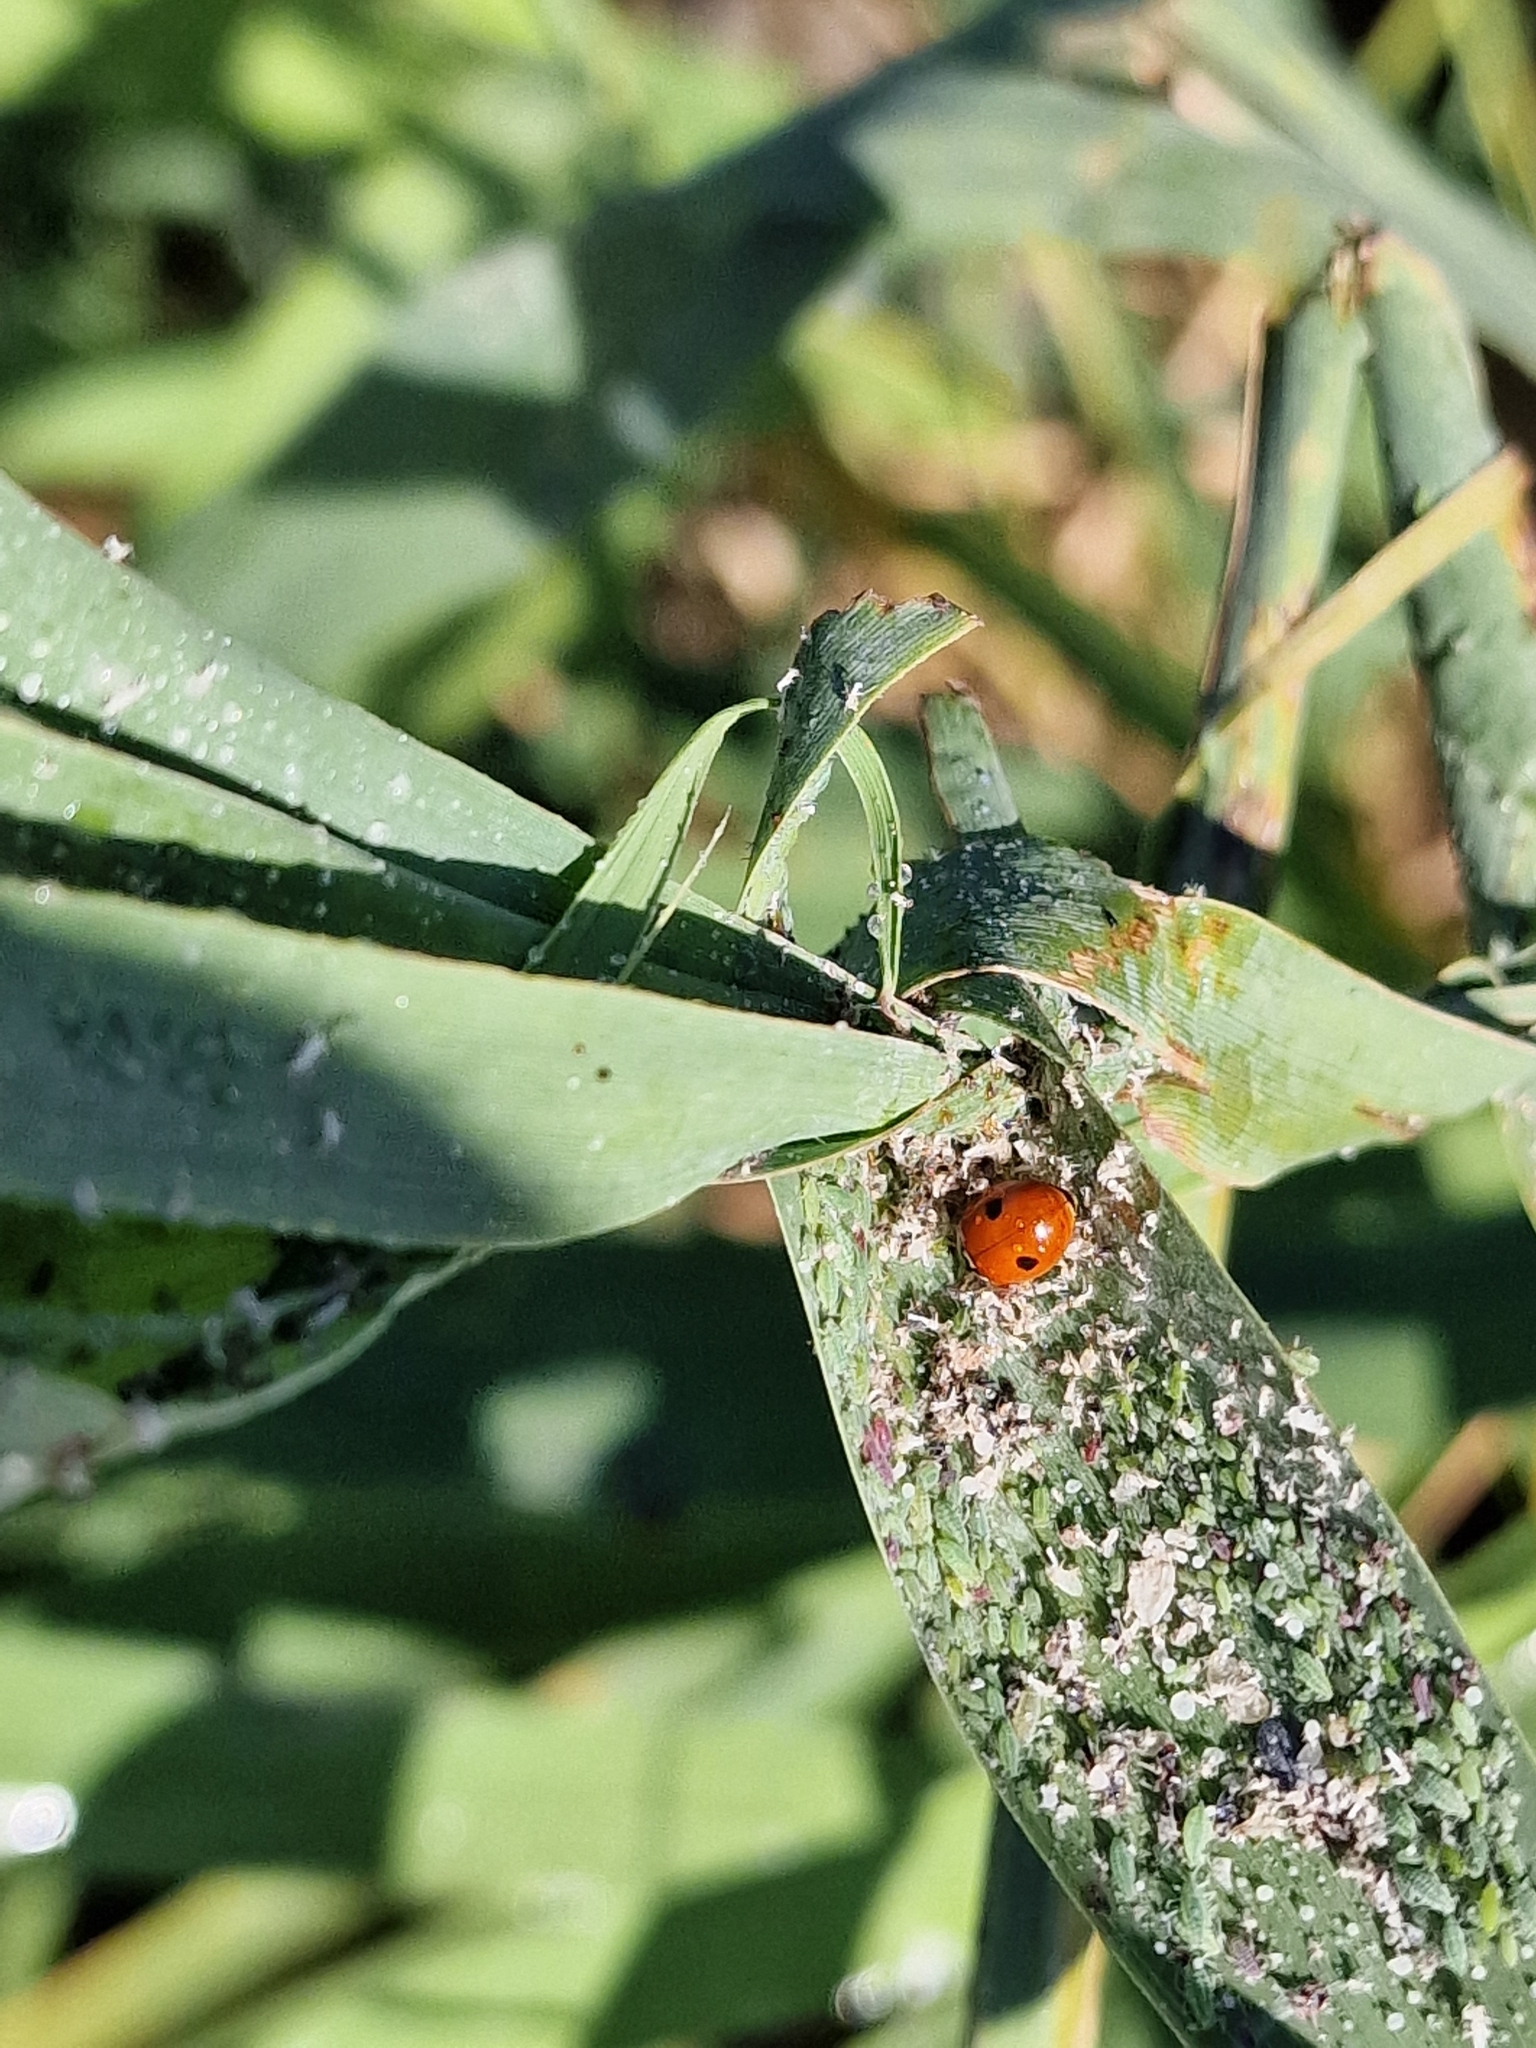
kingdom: Animalia
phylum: Arthropoda
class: Insecta
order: Coleoptera
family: Coccinellidae
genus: Adalia
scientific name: Adalia bipunctata
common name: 2-spot ladybird
